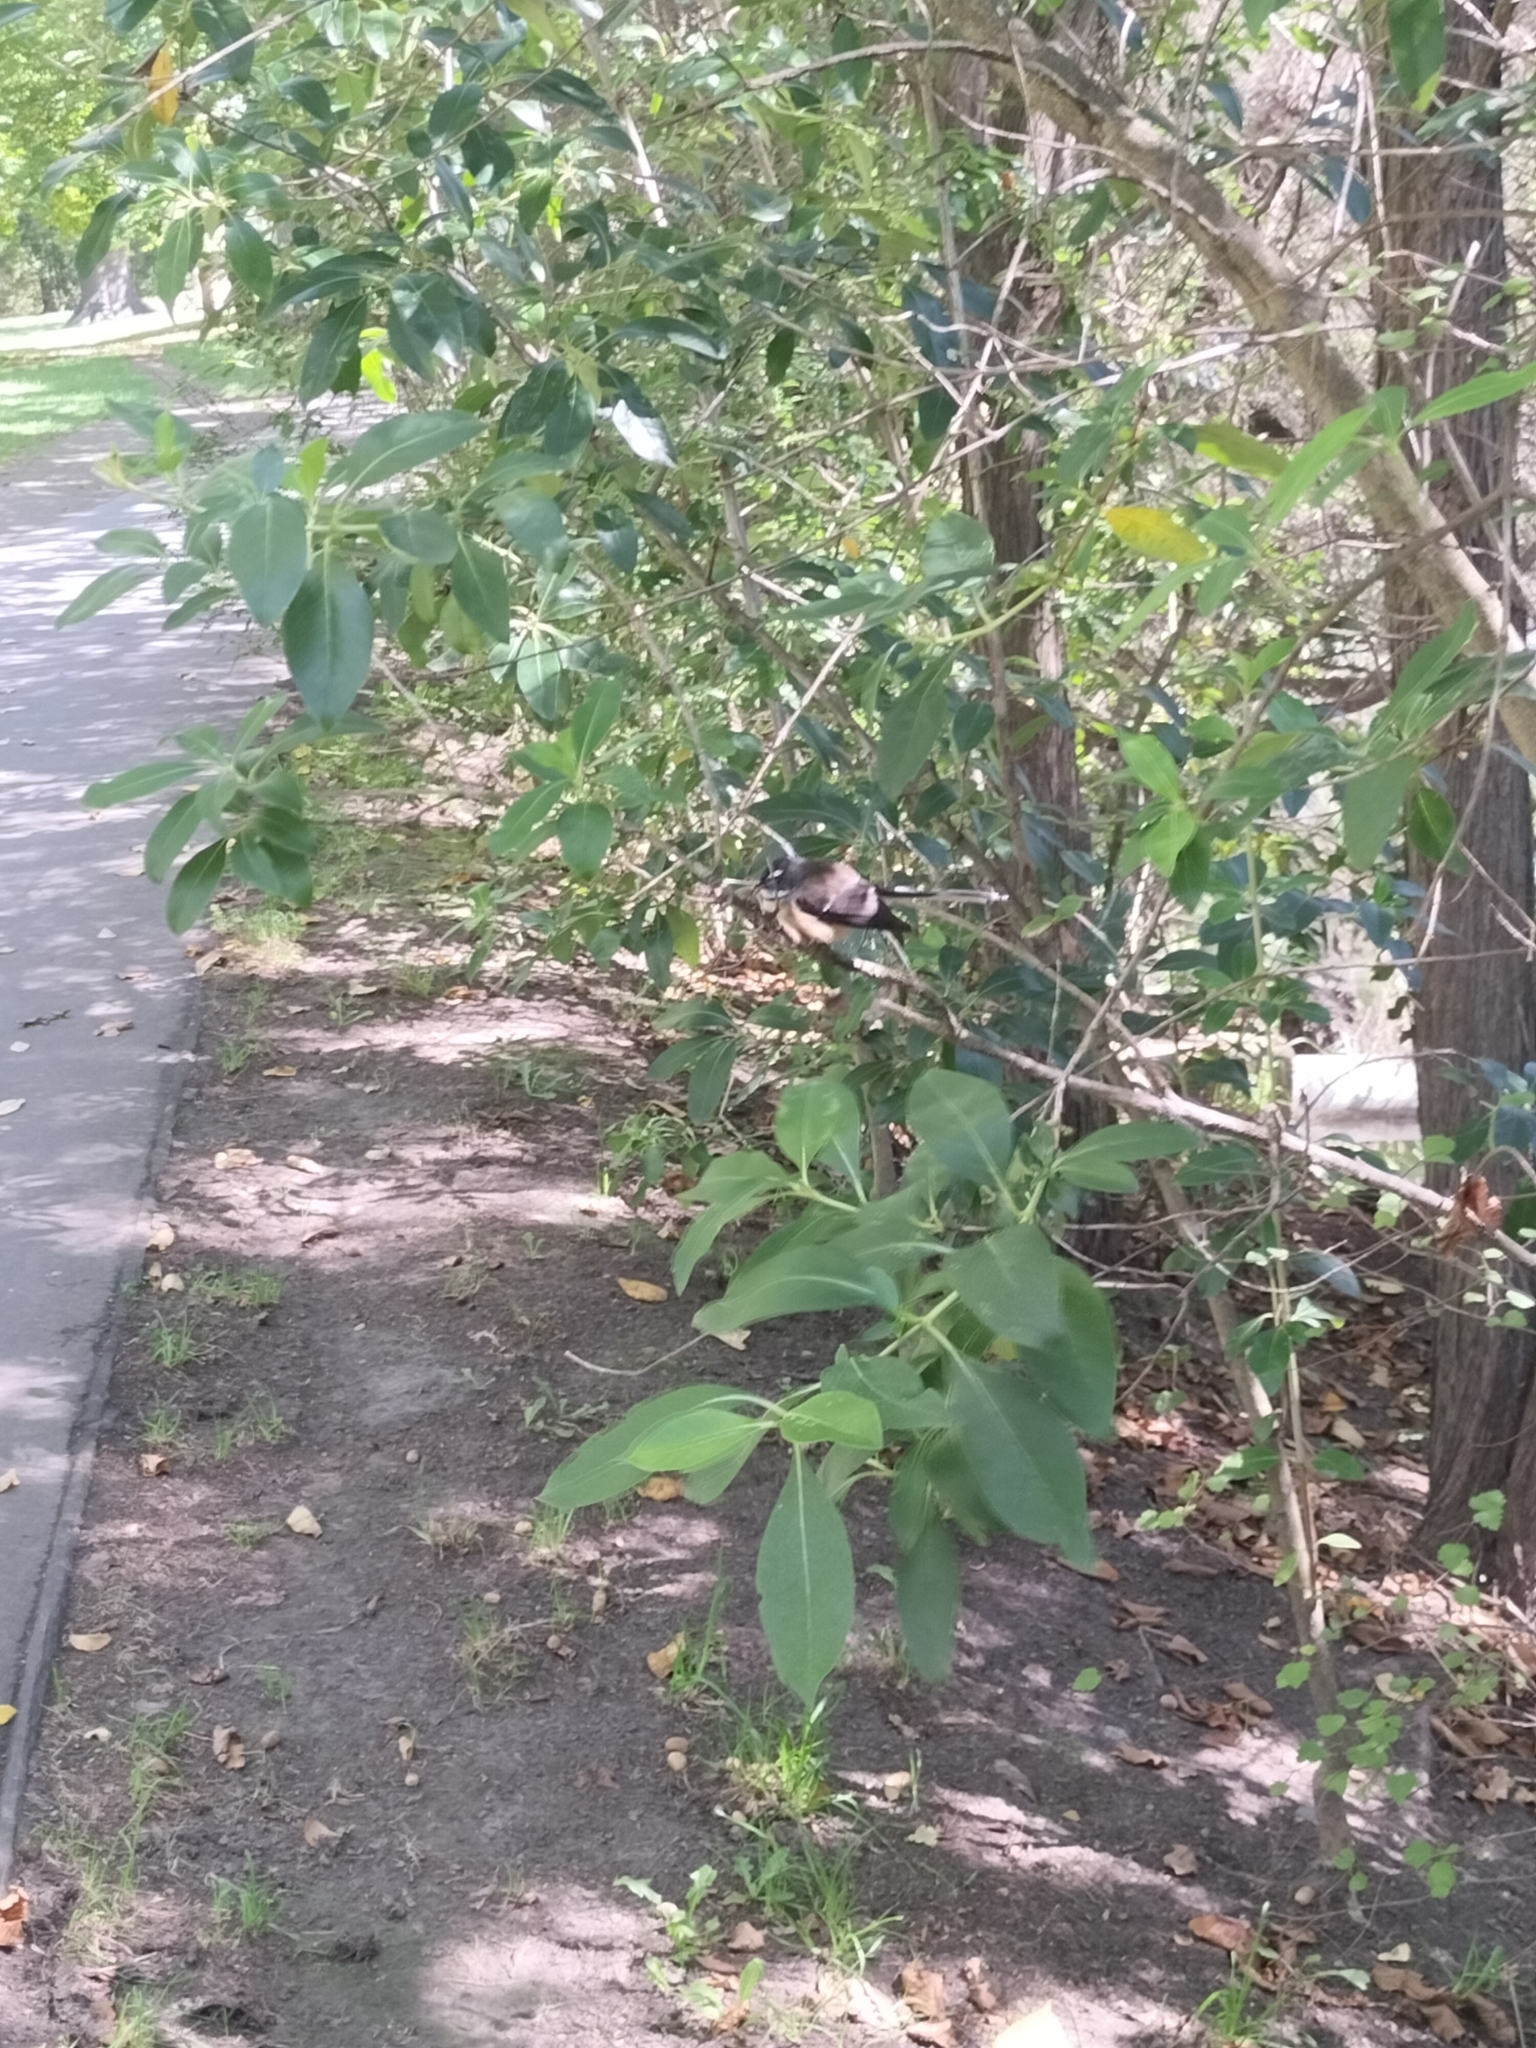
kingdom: Animalia
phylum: Chordata
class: Aves
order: Passeriformes
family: Rhipiduridae
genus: Rhipidura
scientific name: Rhipidura fuliginosa
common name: New zealand fantail
